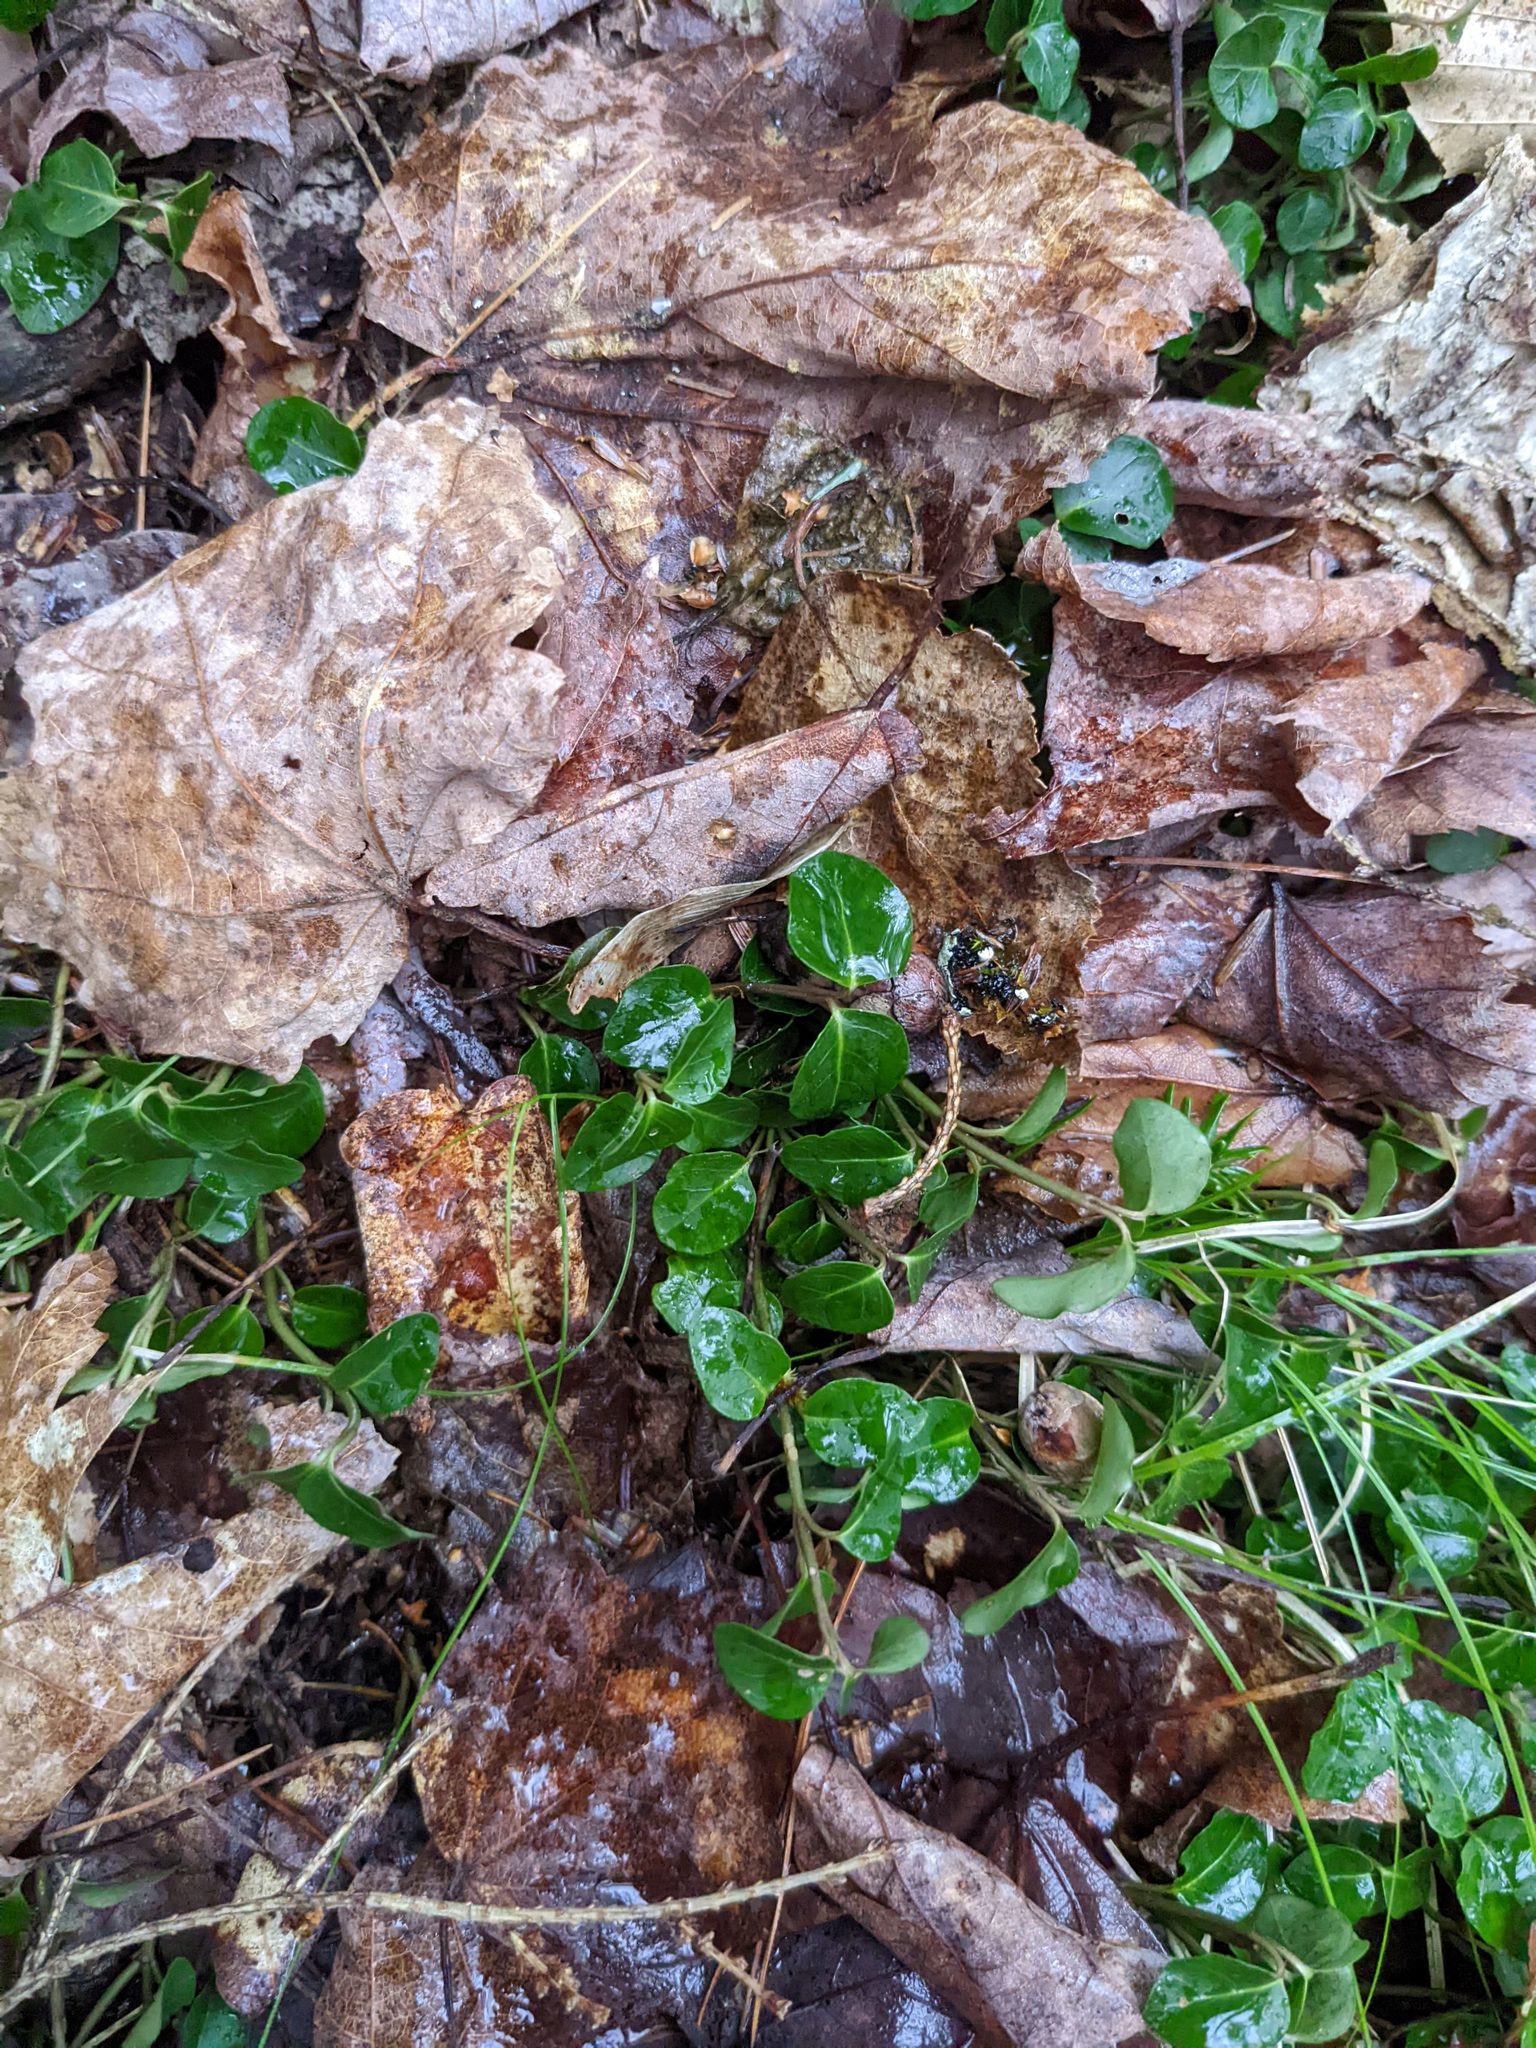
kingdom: Plantae
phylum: Tracheophyta
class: Magnoliopsida
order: Gentianales
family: Rubiaceae
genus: Mitchella
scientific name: Mitchella repens
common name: Partridge-berry
